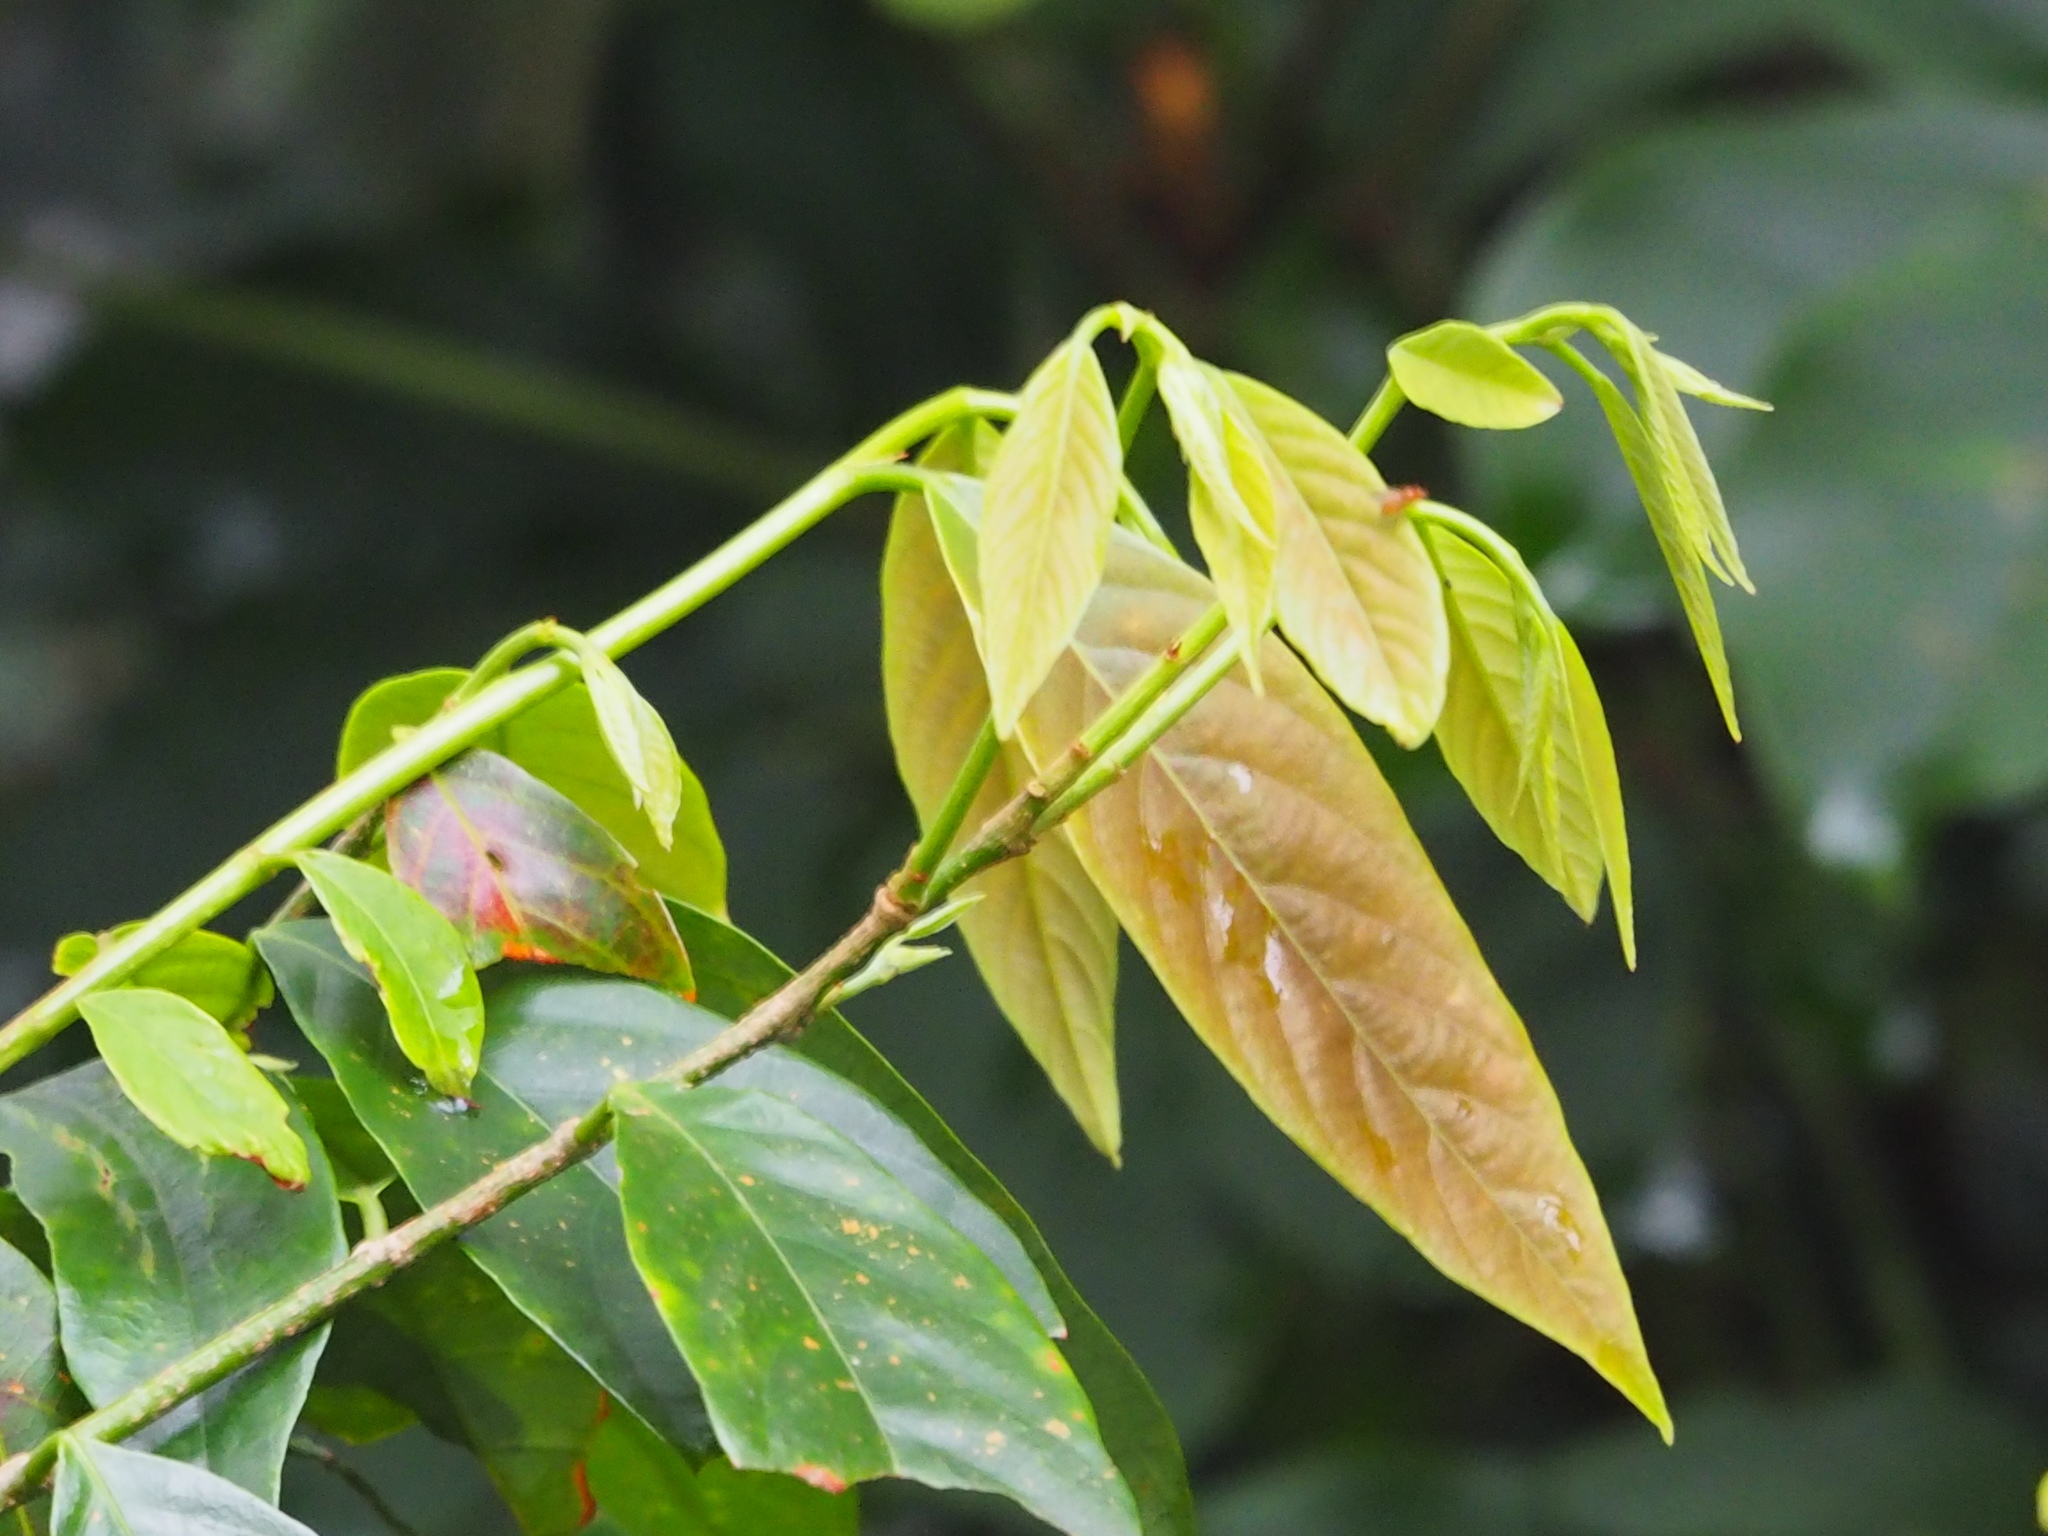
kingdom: Plantae
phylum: Tracheophyta
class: Magnoliopsida
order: Malpighiales
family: Phyllanthaceae
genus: Bridelia
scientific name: Bridelia balansae
